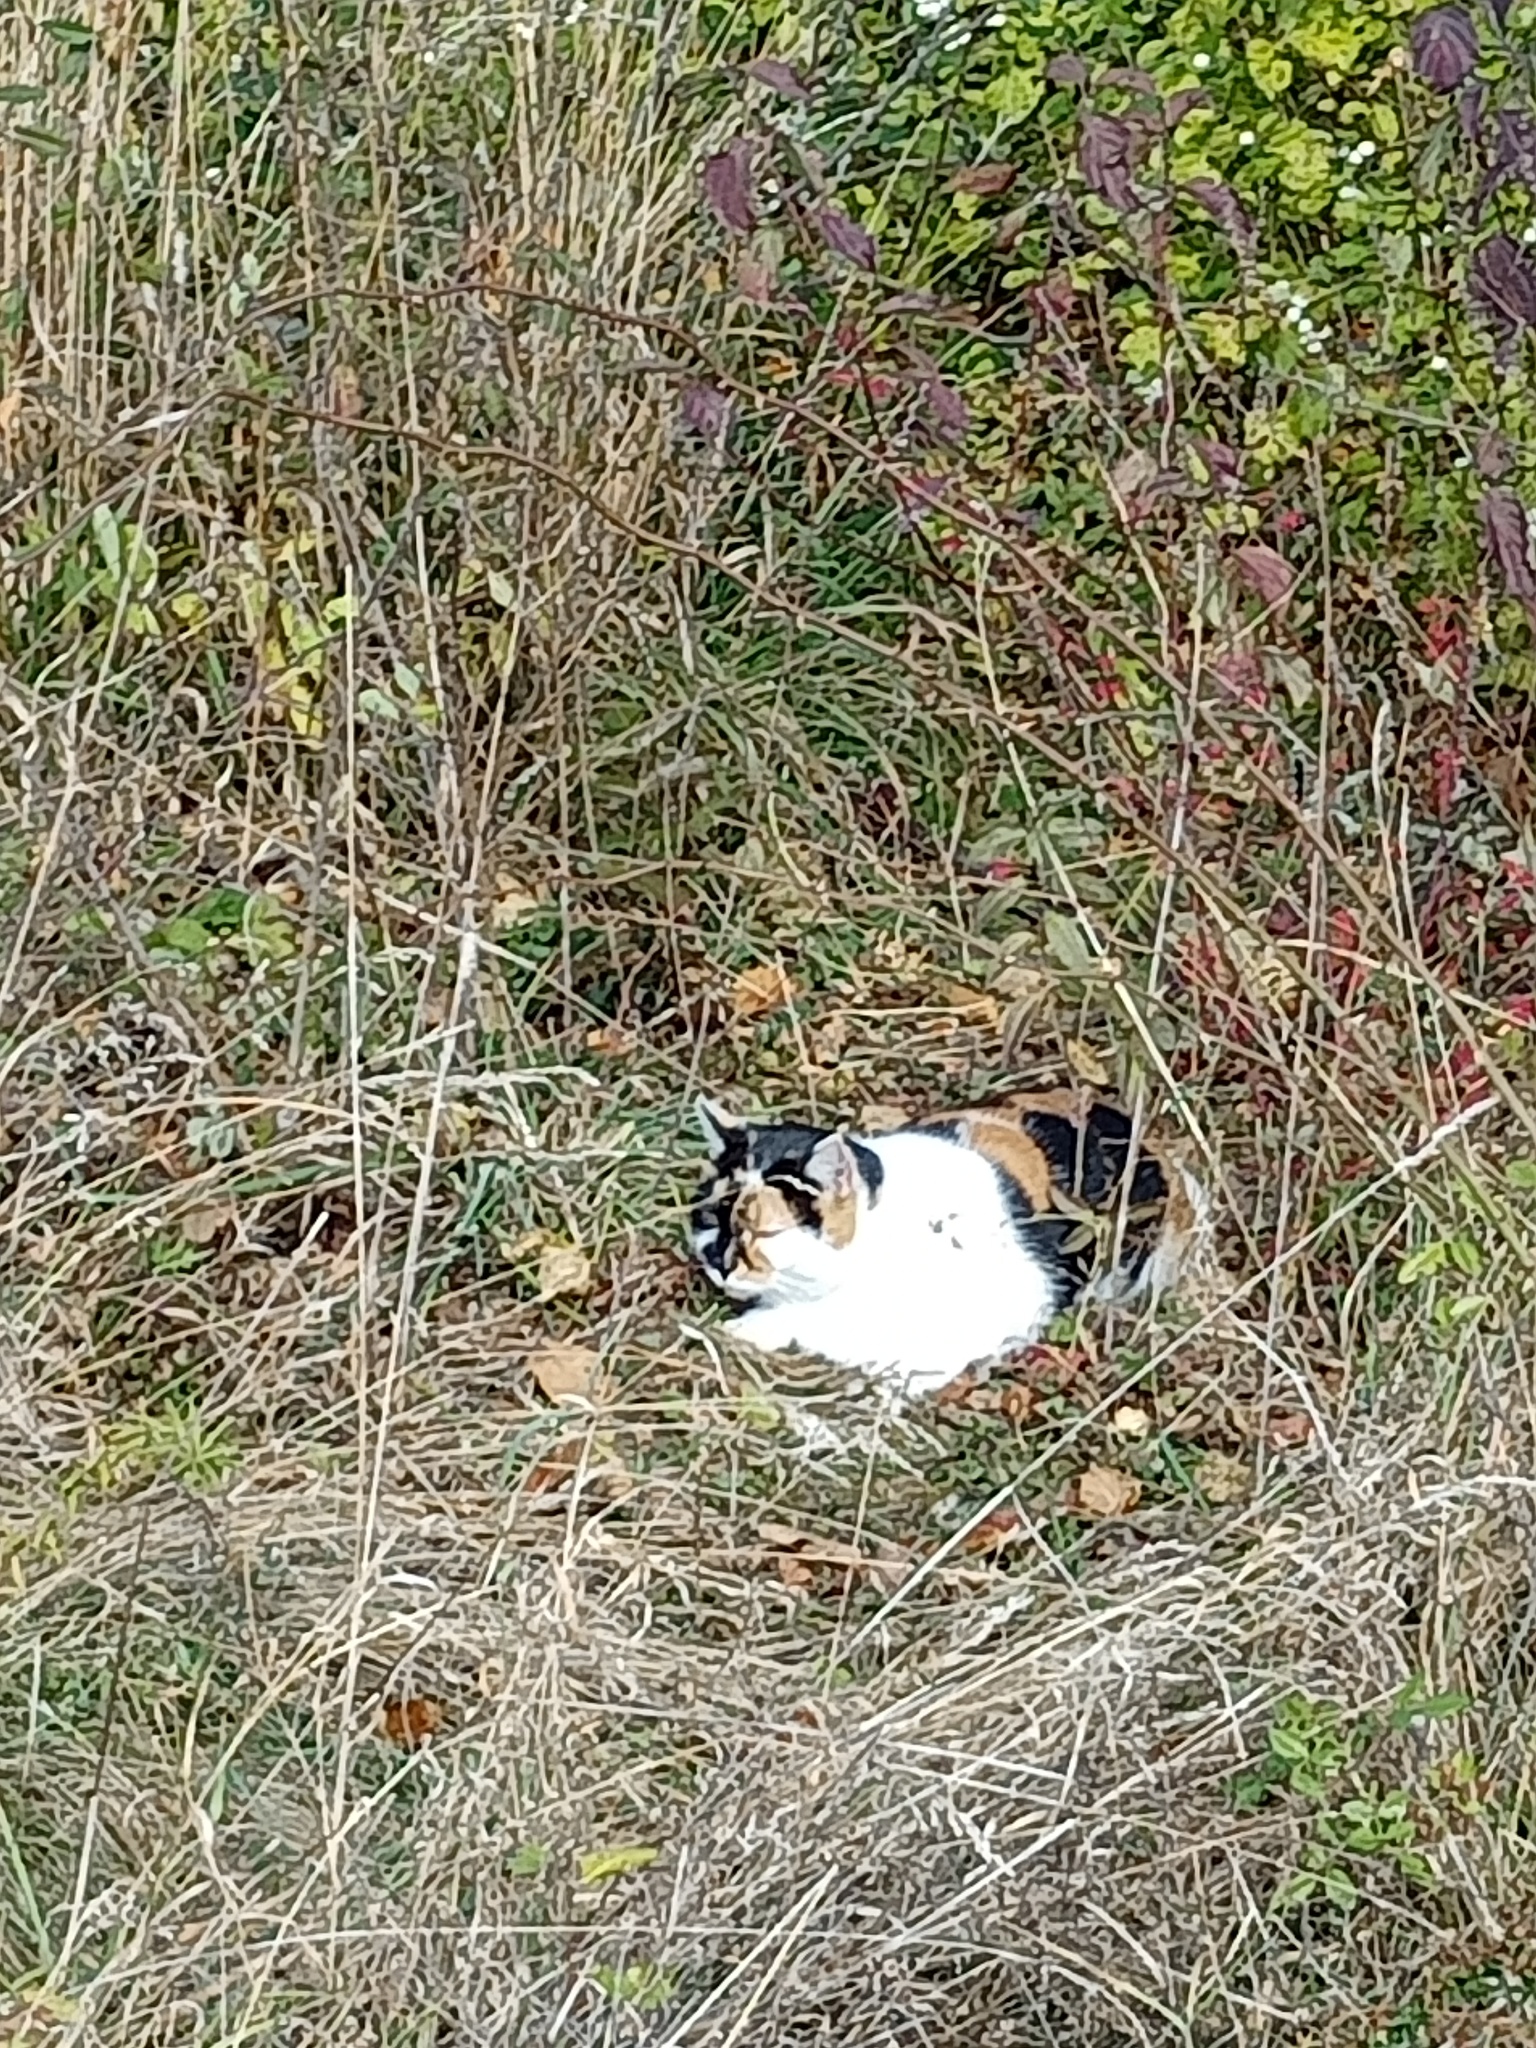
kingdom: Animalia
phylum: Chordata
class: Mammalia
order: Carnivora
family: Felidae
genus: Felis
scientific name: Felis catus
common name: Domestic cat
